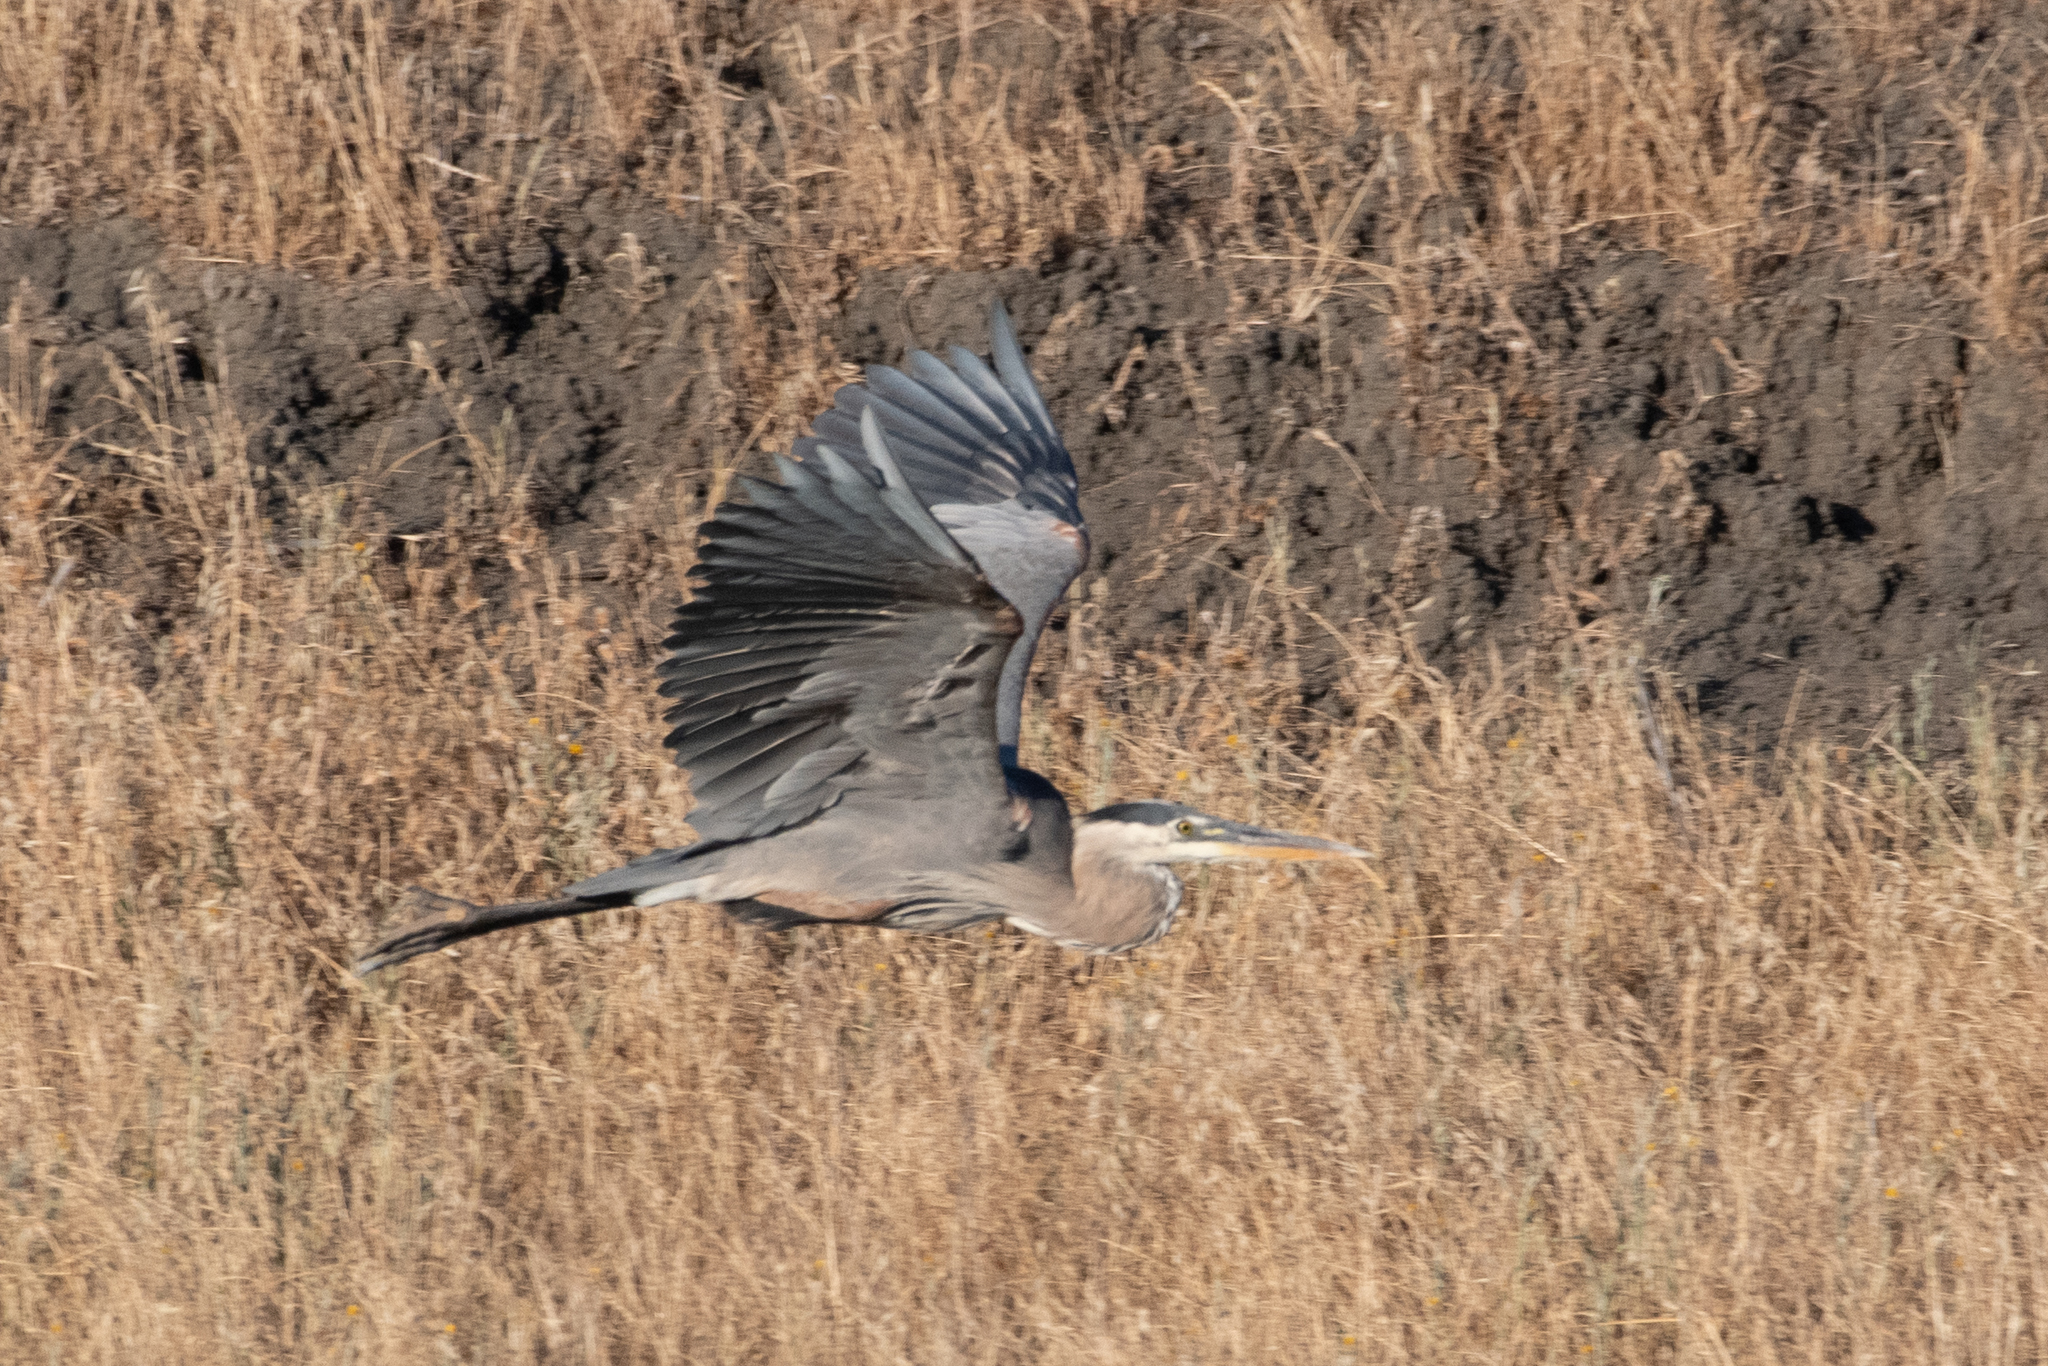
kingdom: Animalia
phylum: Chordata
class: Aves
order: Pelecaniformes
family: Ardeidae
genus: Ardea
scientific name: Ardea herodias
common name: Great blue heron
